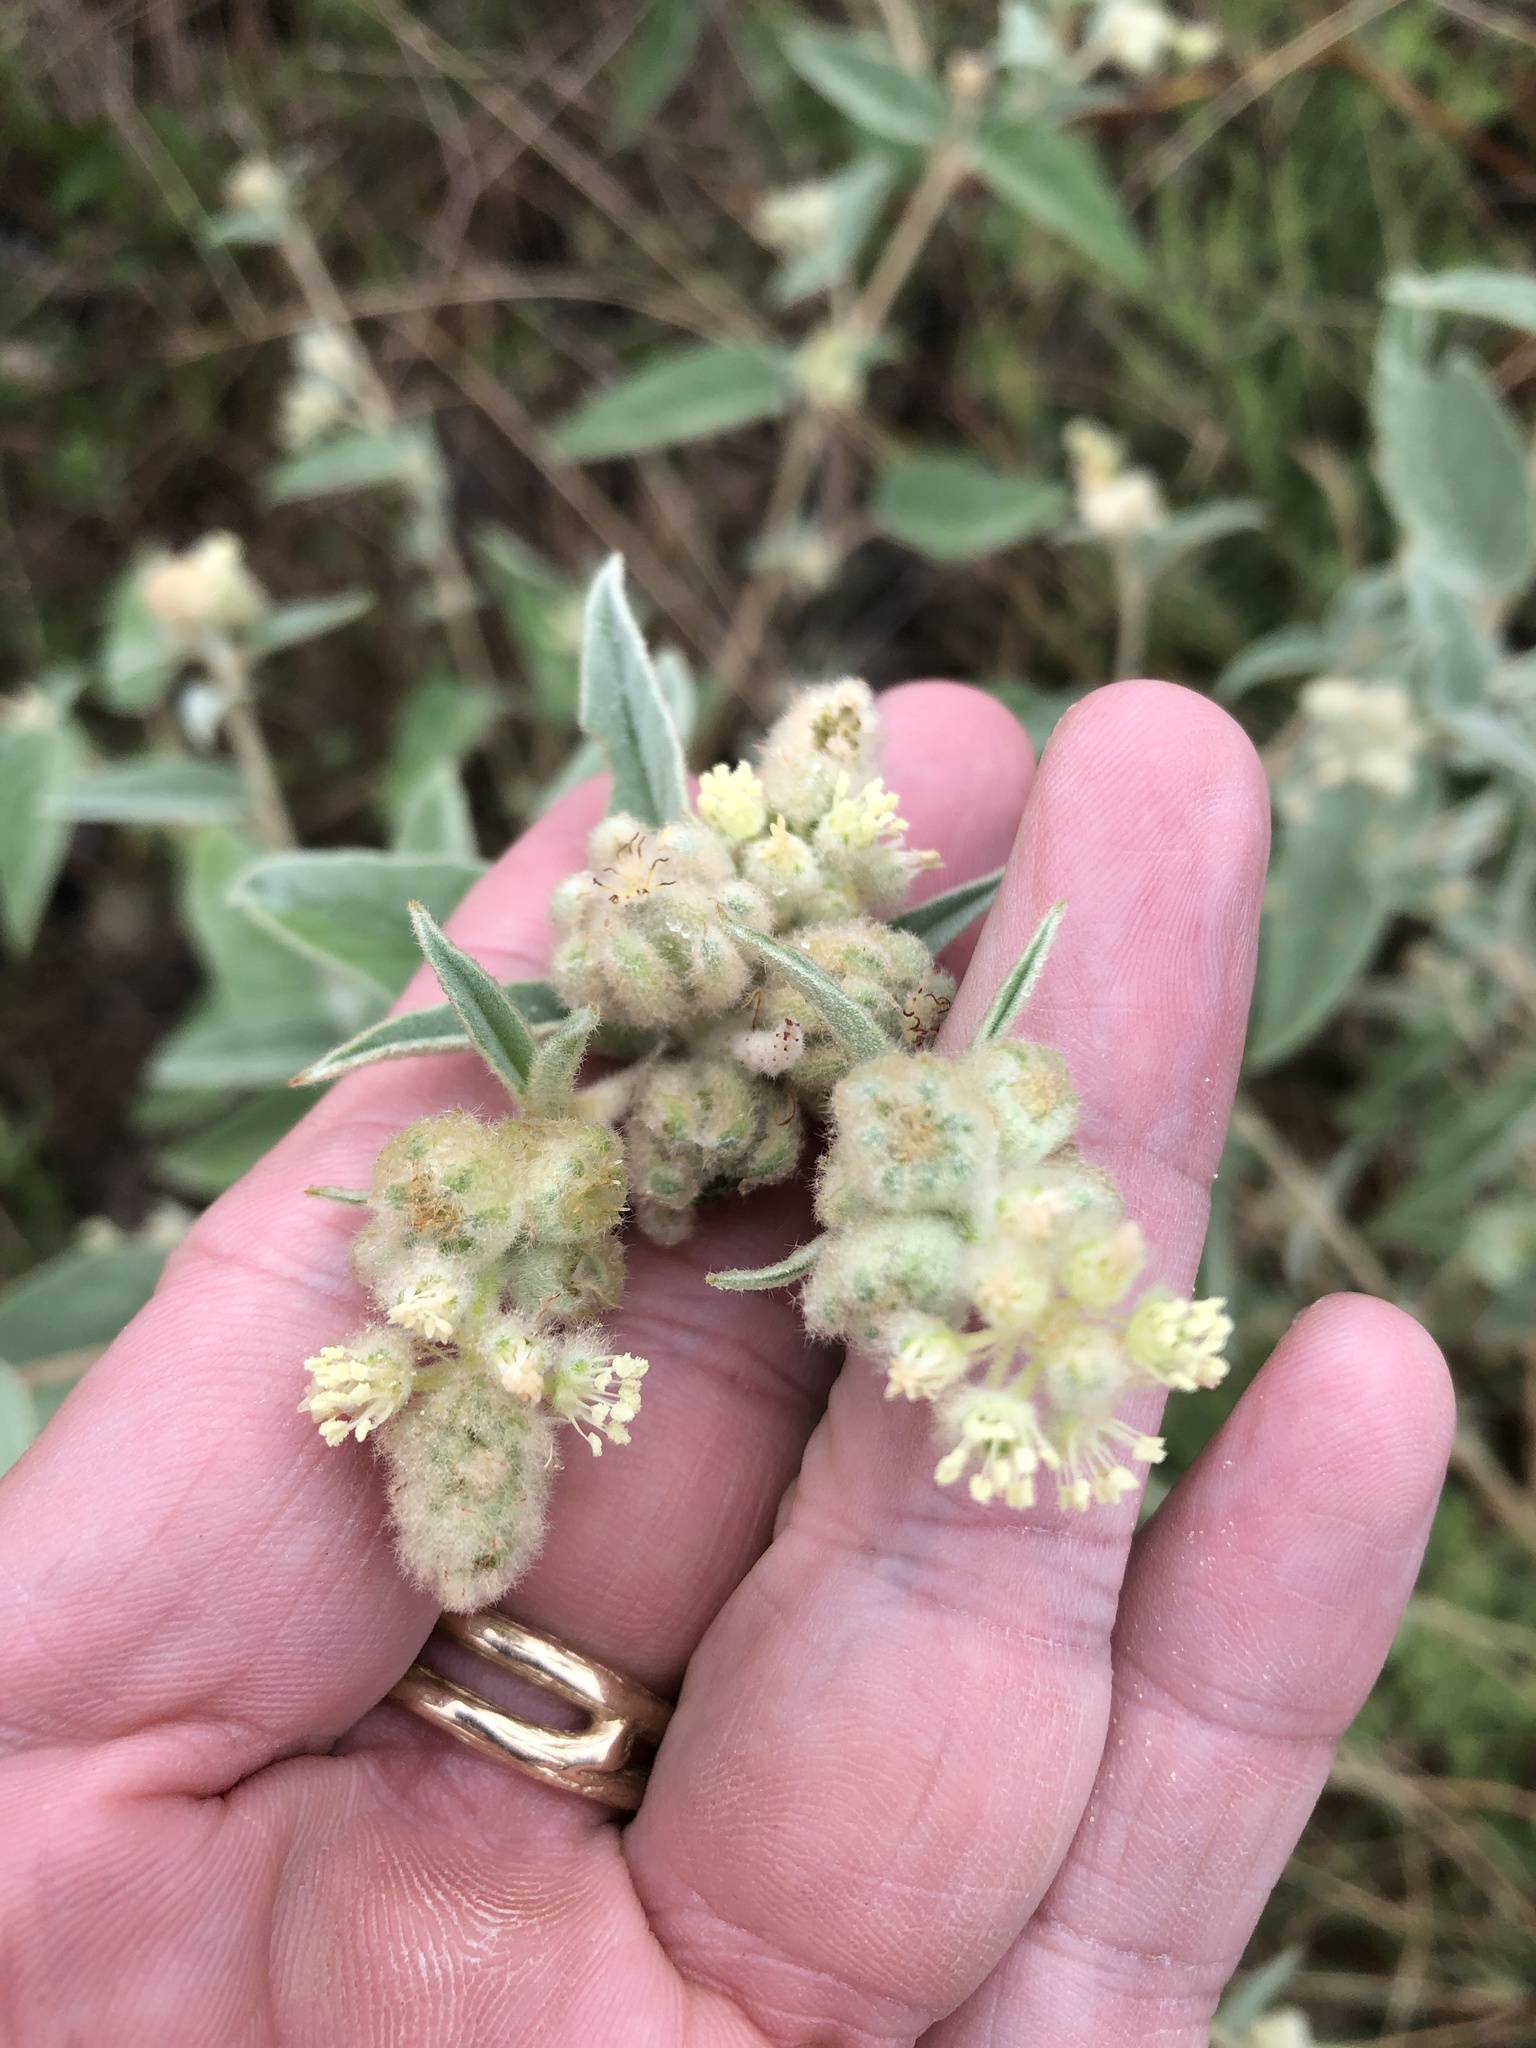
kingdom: Plantae
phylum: Tracheophyta
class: Magnoliopsida
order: Malpighiales
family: Euphorbiaceae
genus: Croton
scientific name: Croton lindheimeri
